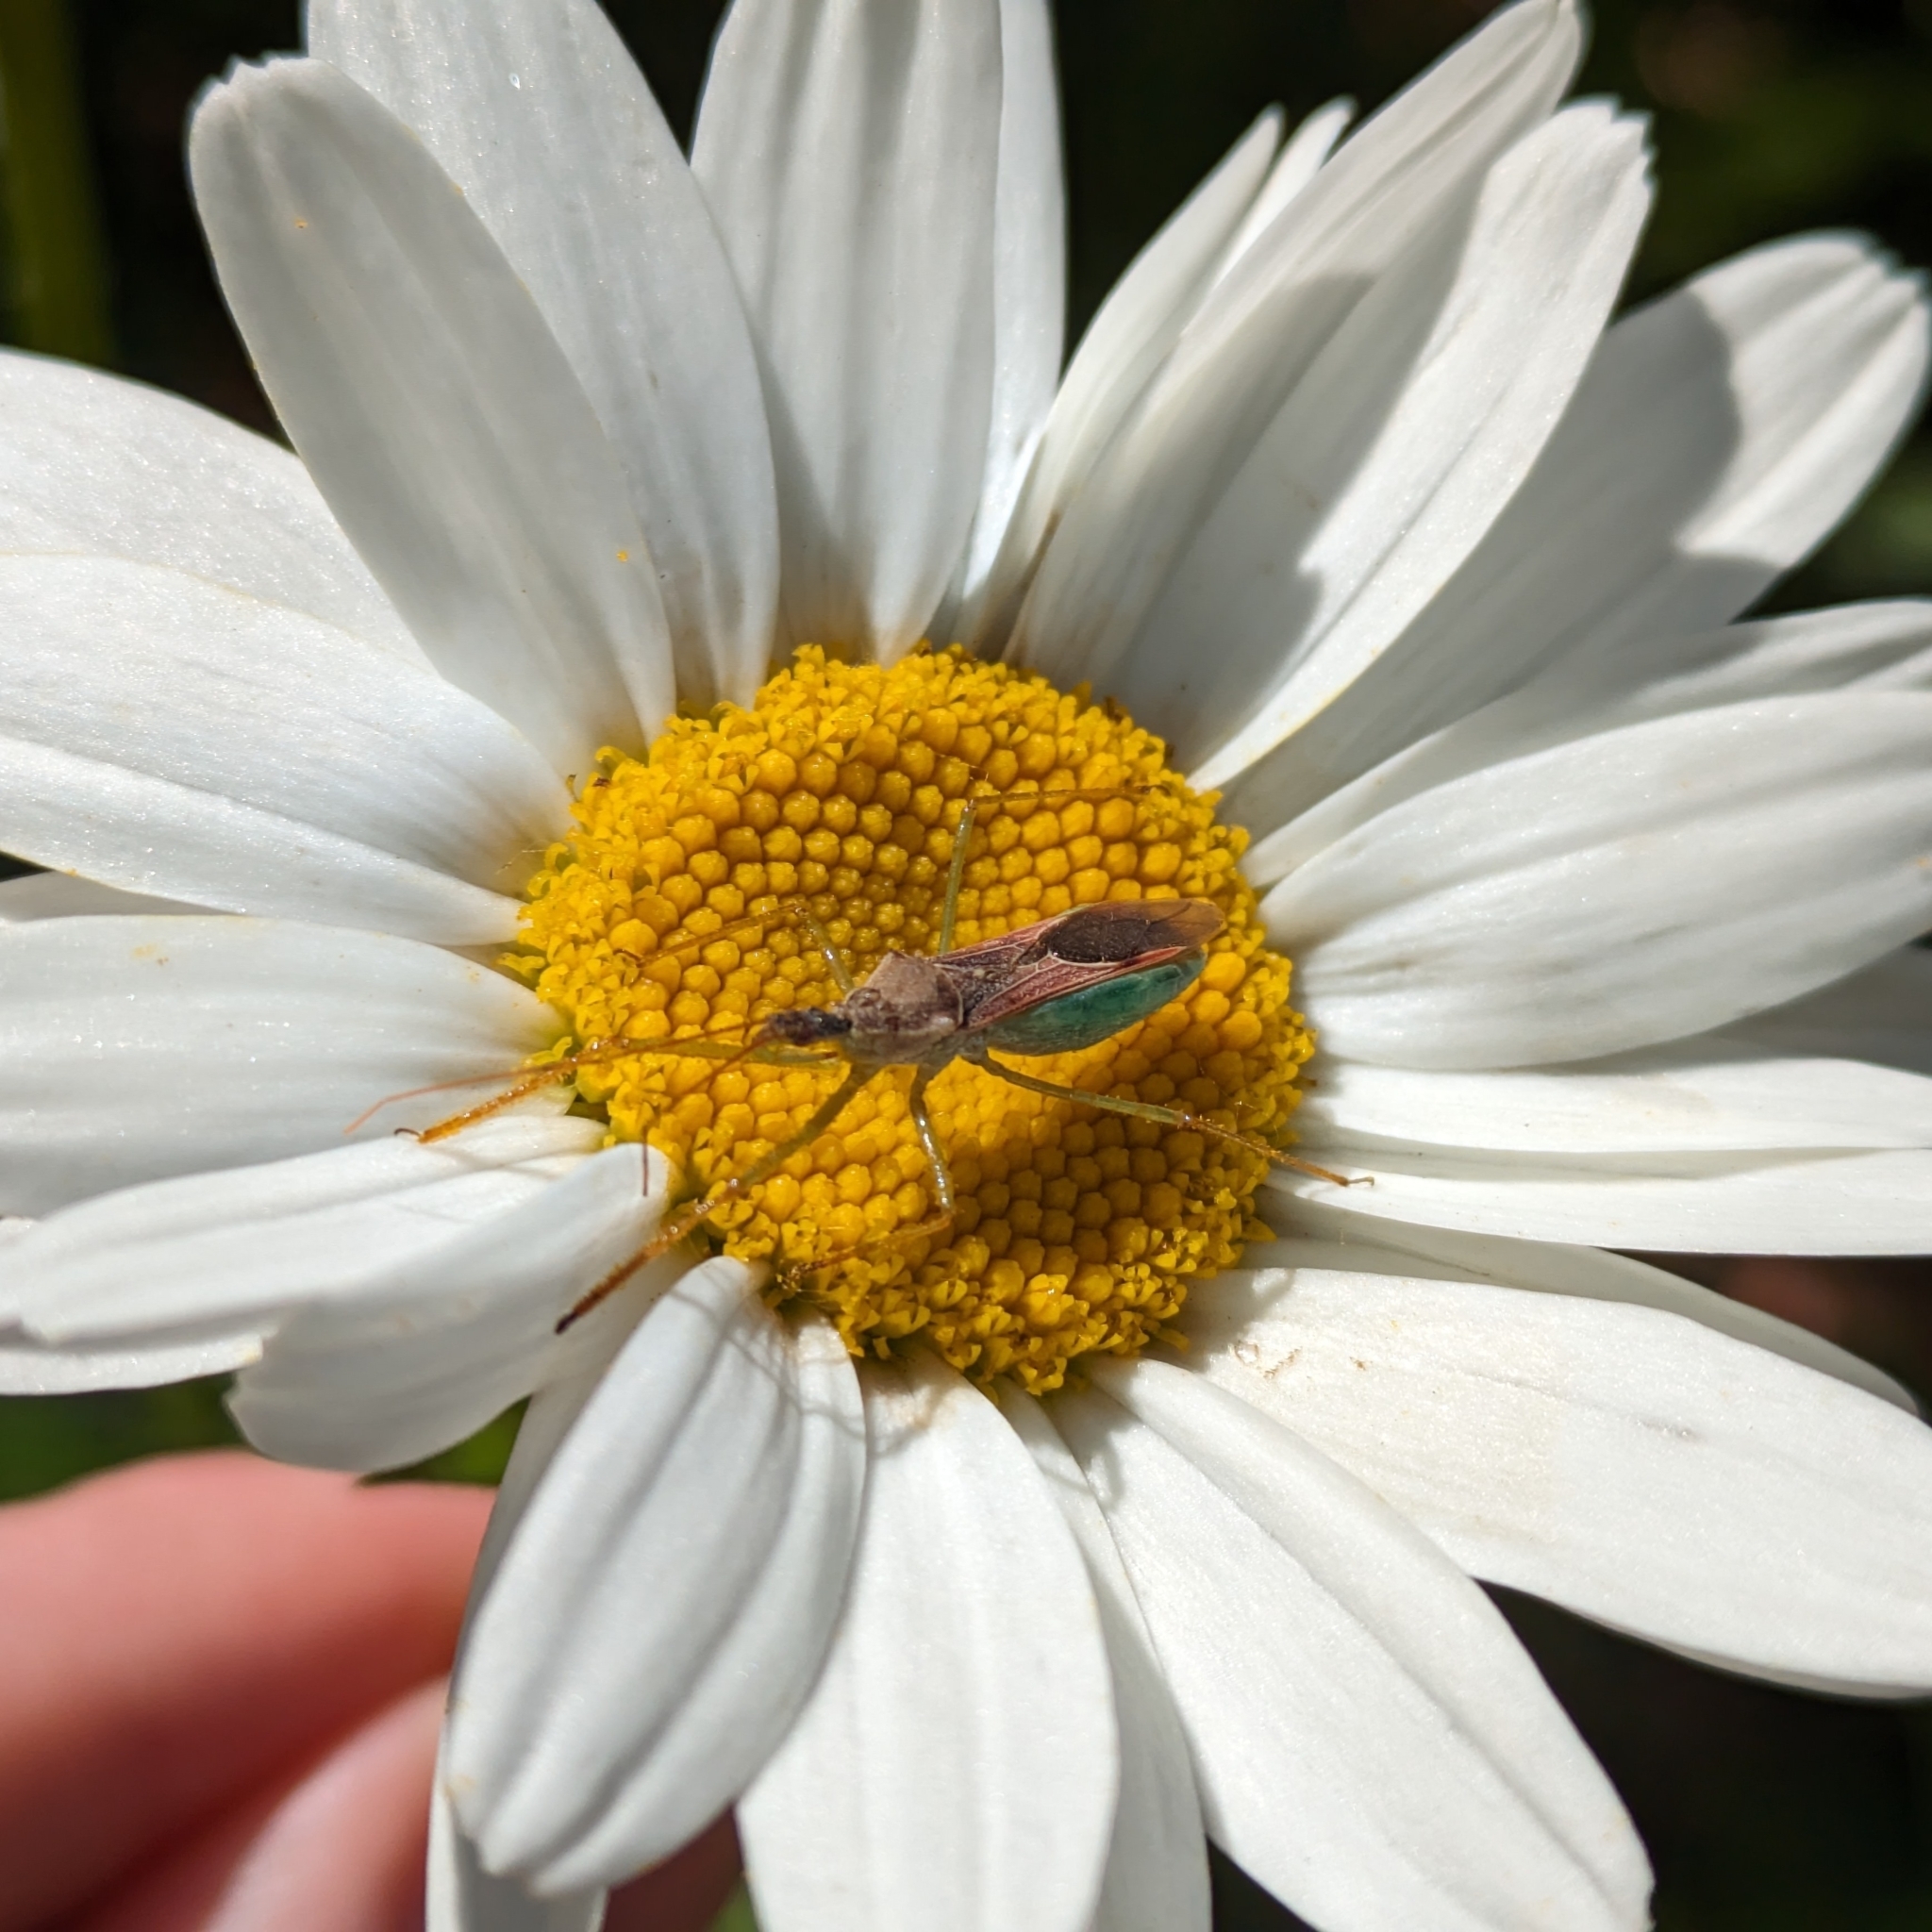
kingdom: Animalia
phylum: Arthropoda
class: Insecta
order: Hemiptera
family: Reduviidae
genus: Zelus
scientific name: Zelus renardii
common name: Assassin bug
